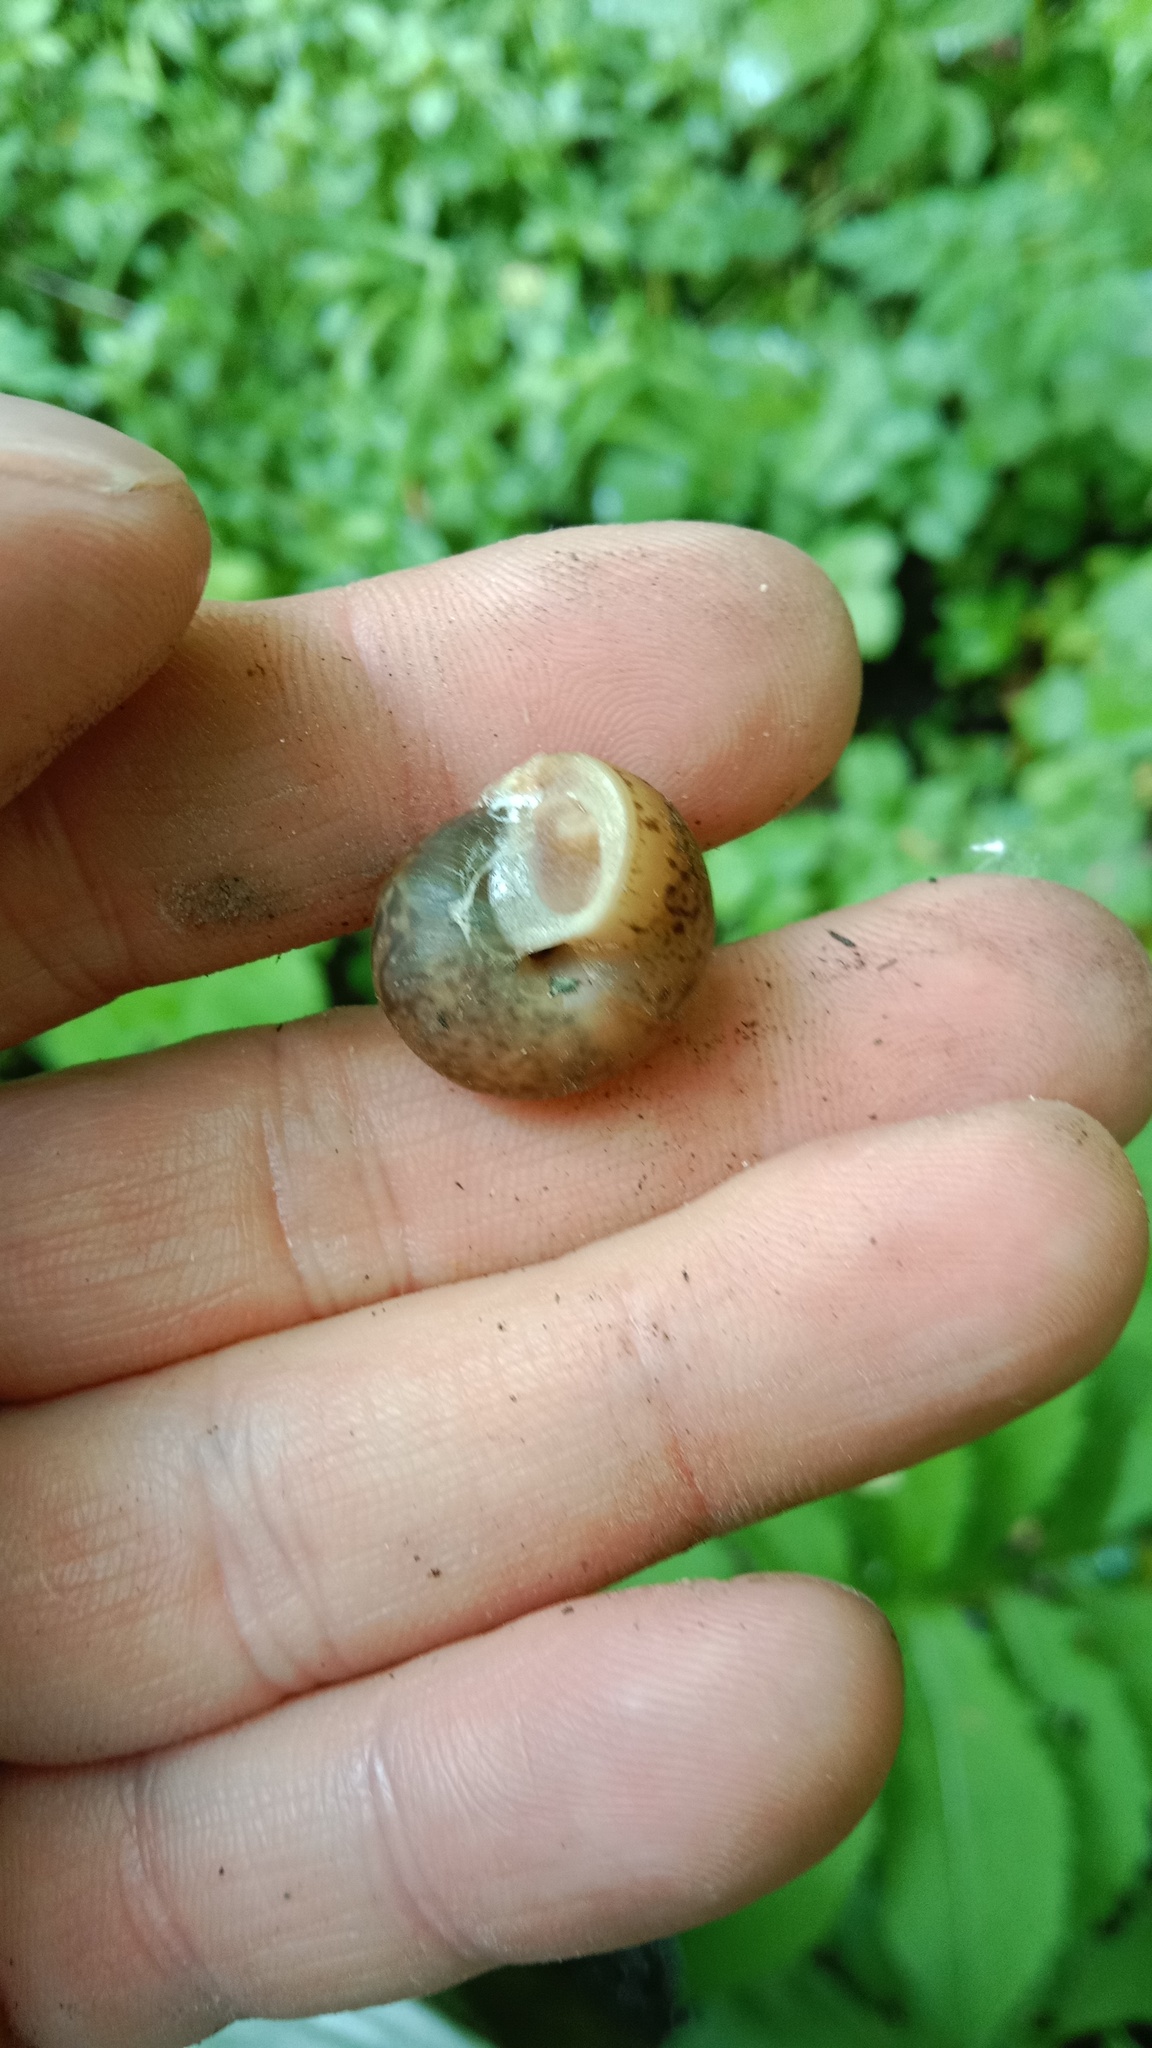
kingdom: Animalia
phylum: Mollusca
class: Gastropoda
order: Stylommatophora
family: Camaenidae
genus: Fruticicola
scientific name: Fruticicola fruticum
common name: Bush snail
